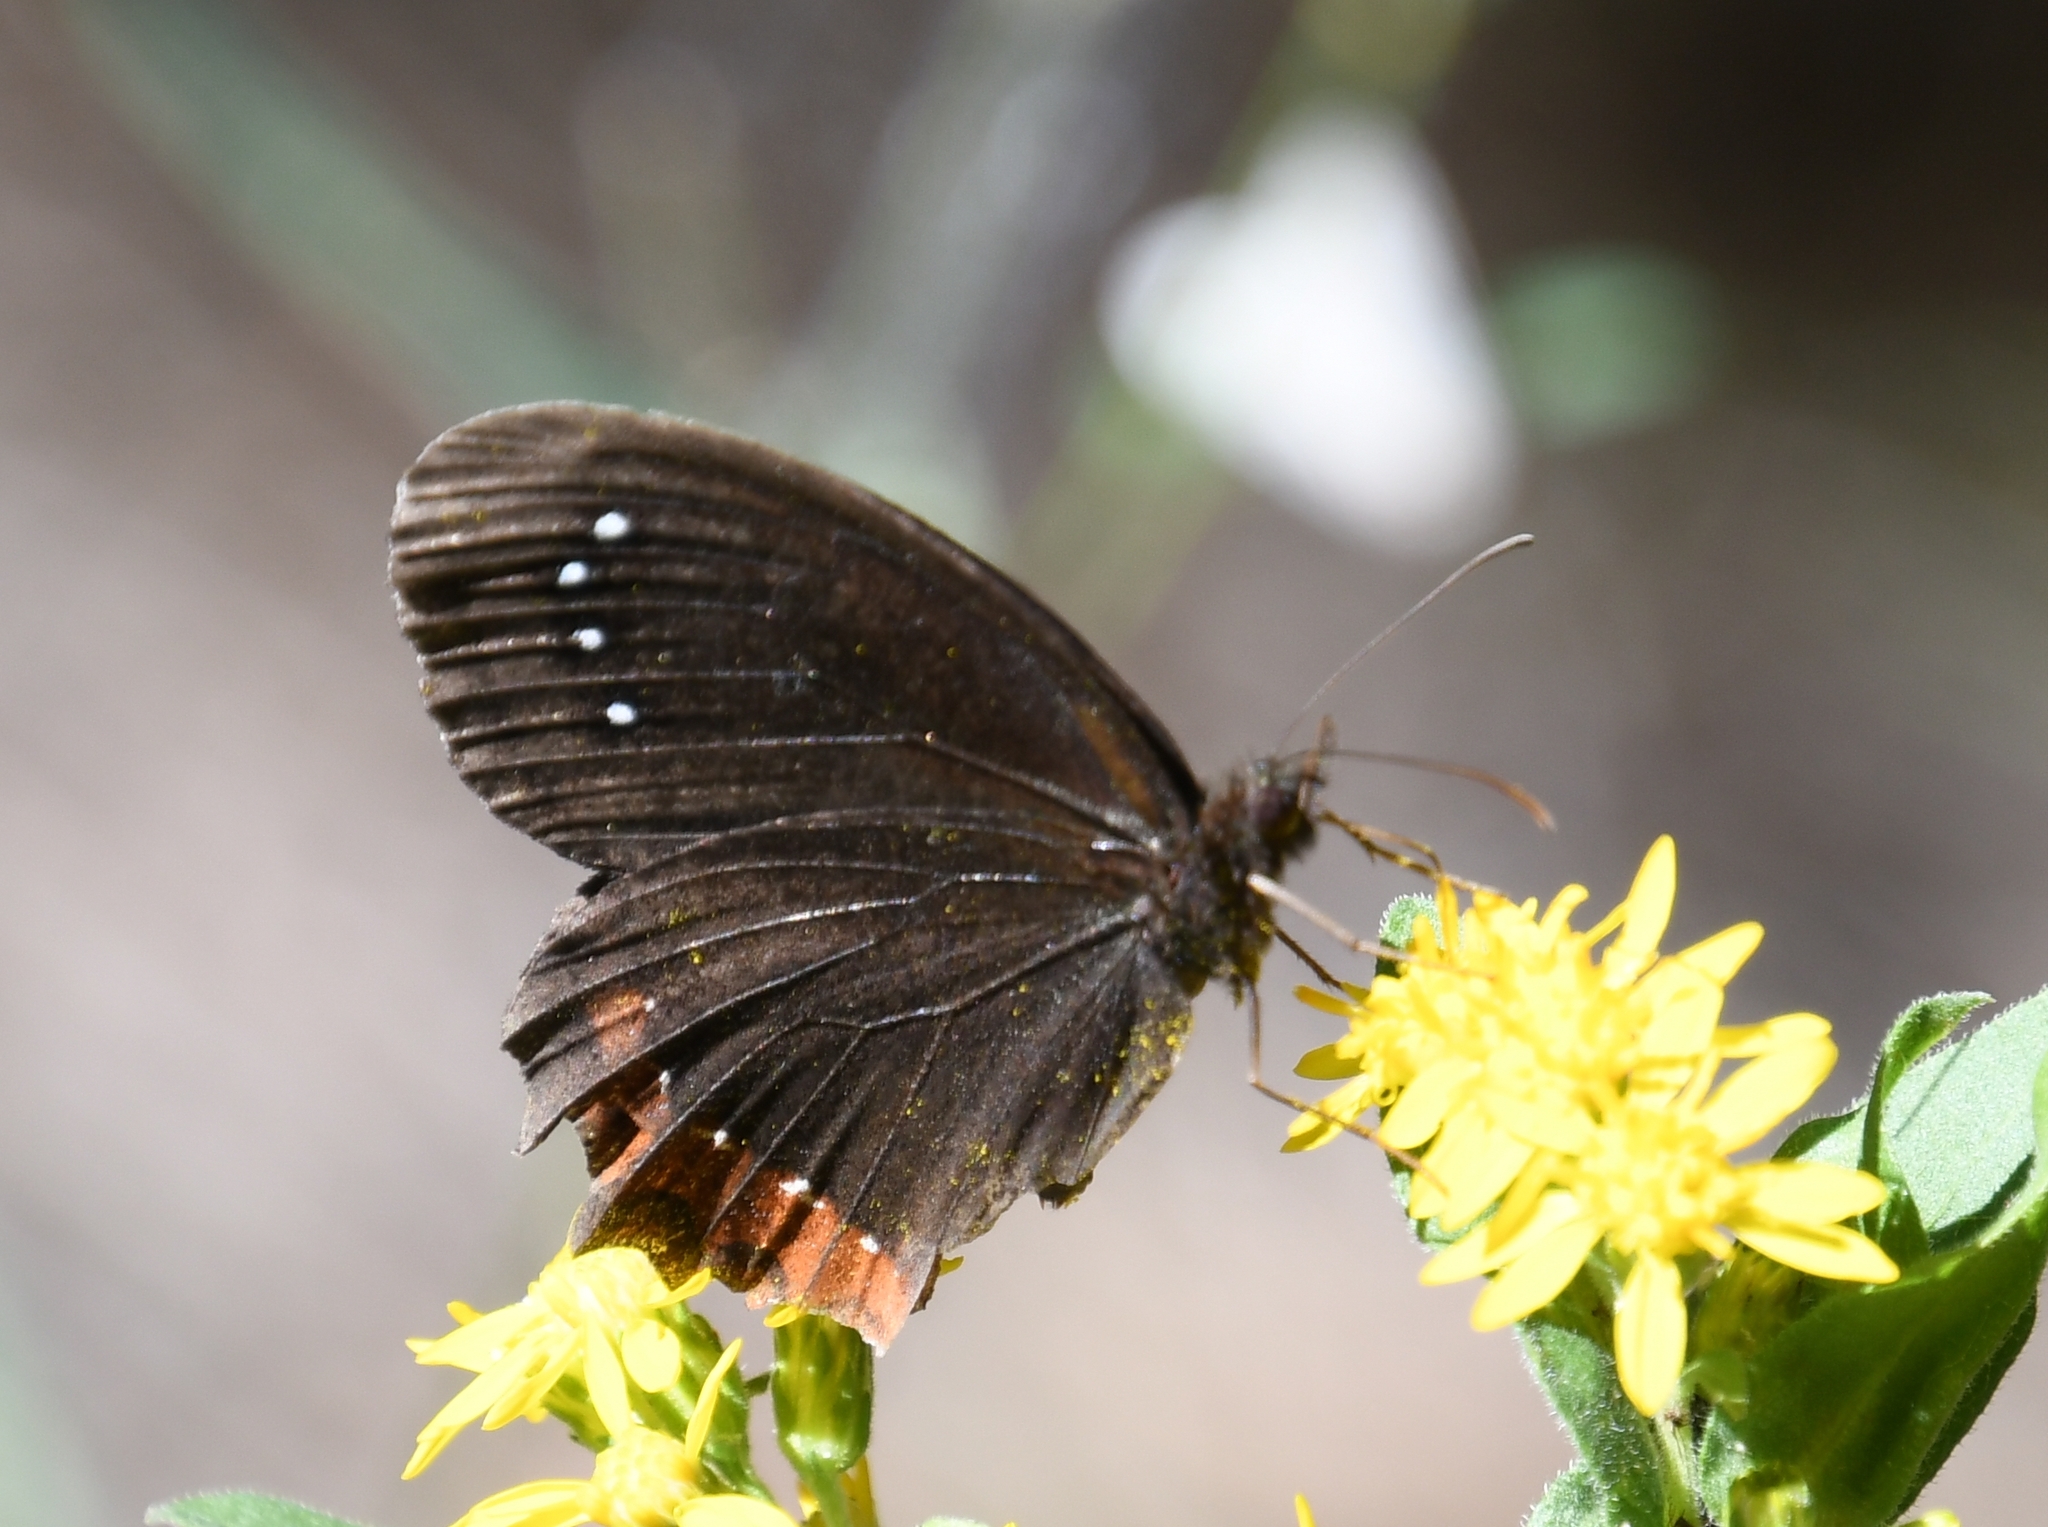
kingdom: Animalia
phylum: Arthropoda
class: Insecta
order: Lepidoptera
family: Nymphalidae
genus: Gyrocheilus
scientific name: Gyrocheilus patrobas
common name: Red-bordered satyr
